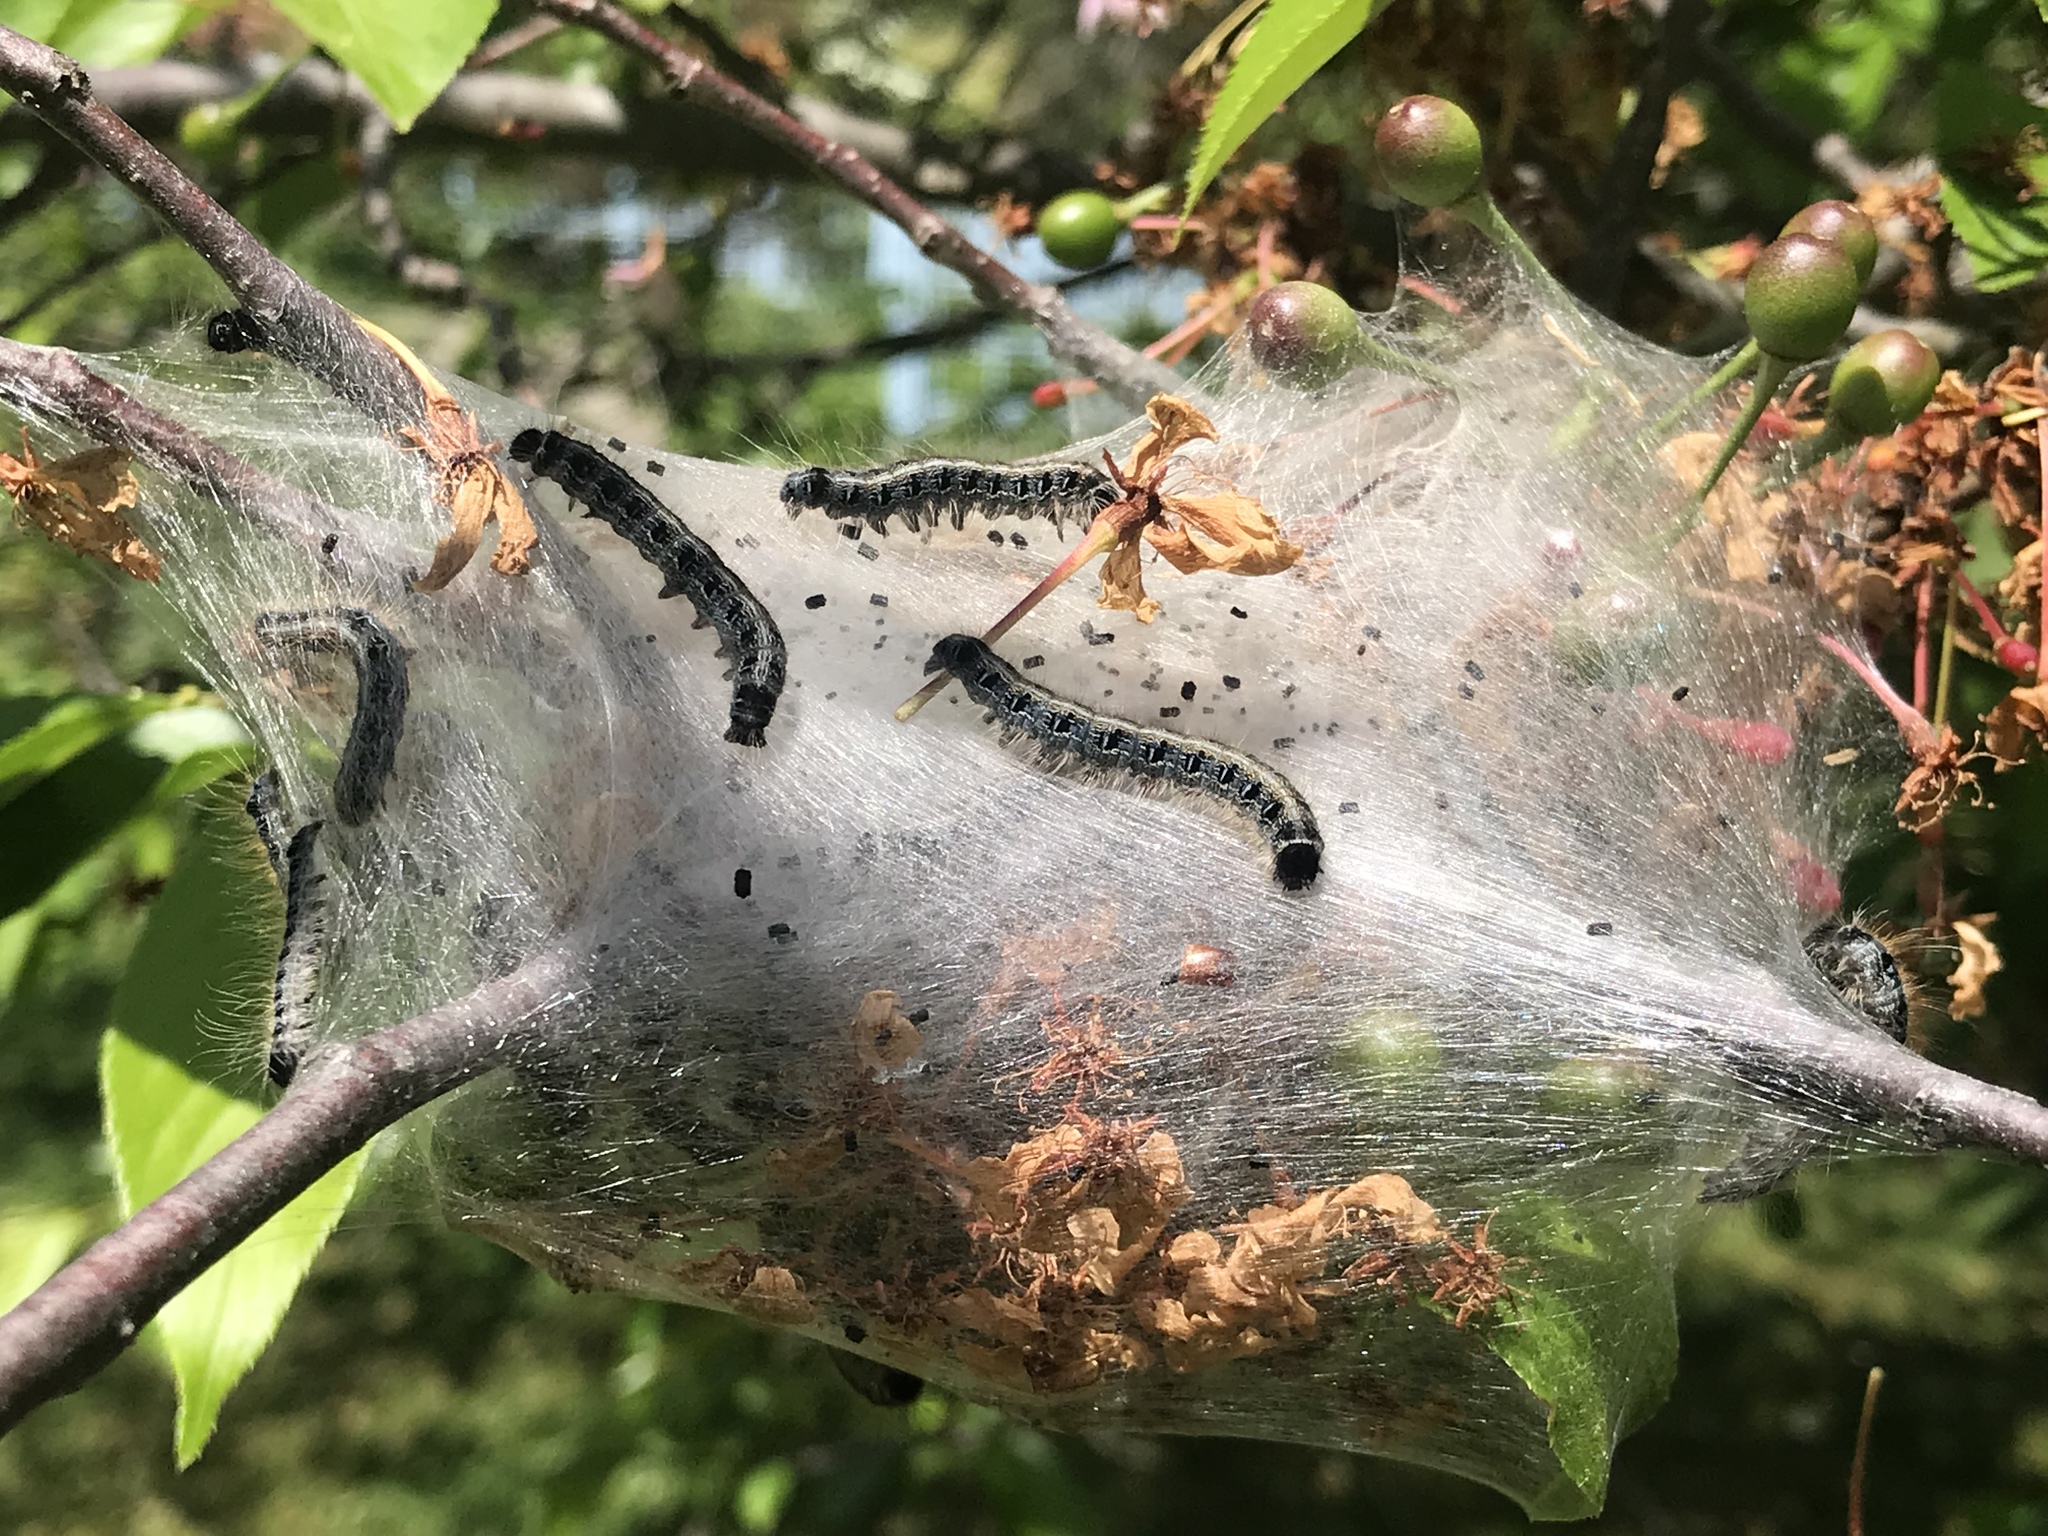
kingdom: Animalia
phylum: Arthropoda
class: Insecta
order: Lepidoptera
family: Lasiocampidae
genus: Malacosoma
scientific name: Malacosoma americana
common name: Eastern tent caterpillar moth
